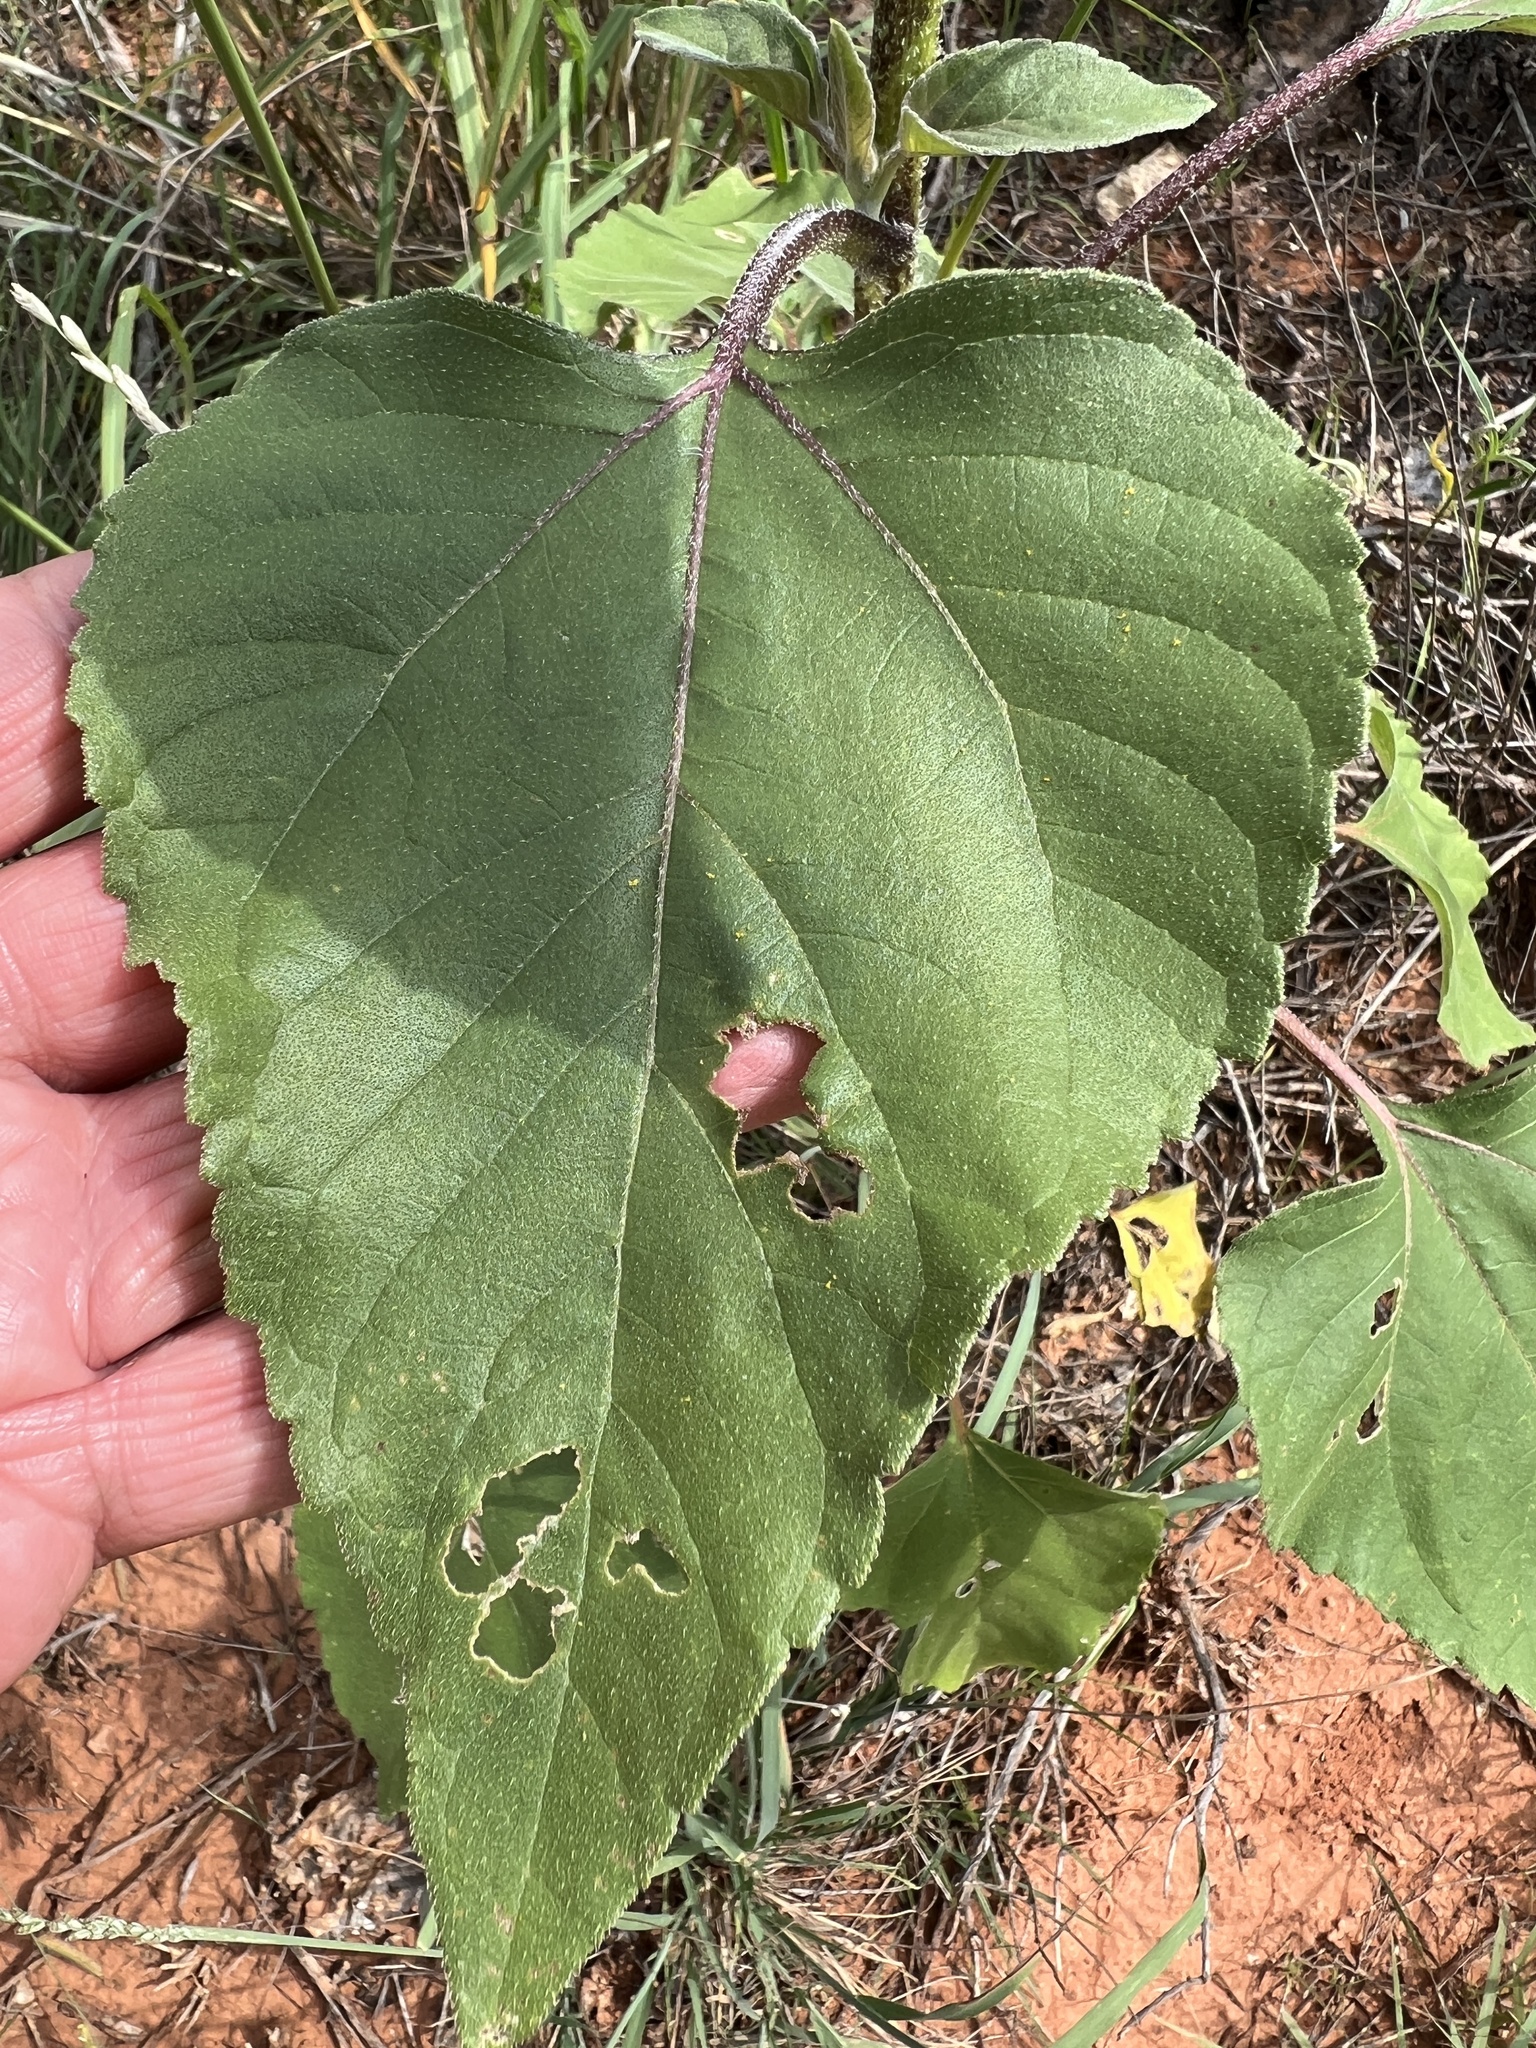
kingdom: Plantae
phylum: Tracheophyta
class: Magnoliopsida
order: Asterales
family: Asteraceae
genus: Helianthus
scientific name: Helianthus annuus
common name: Sunflower
